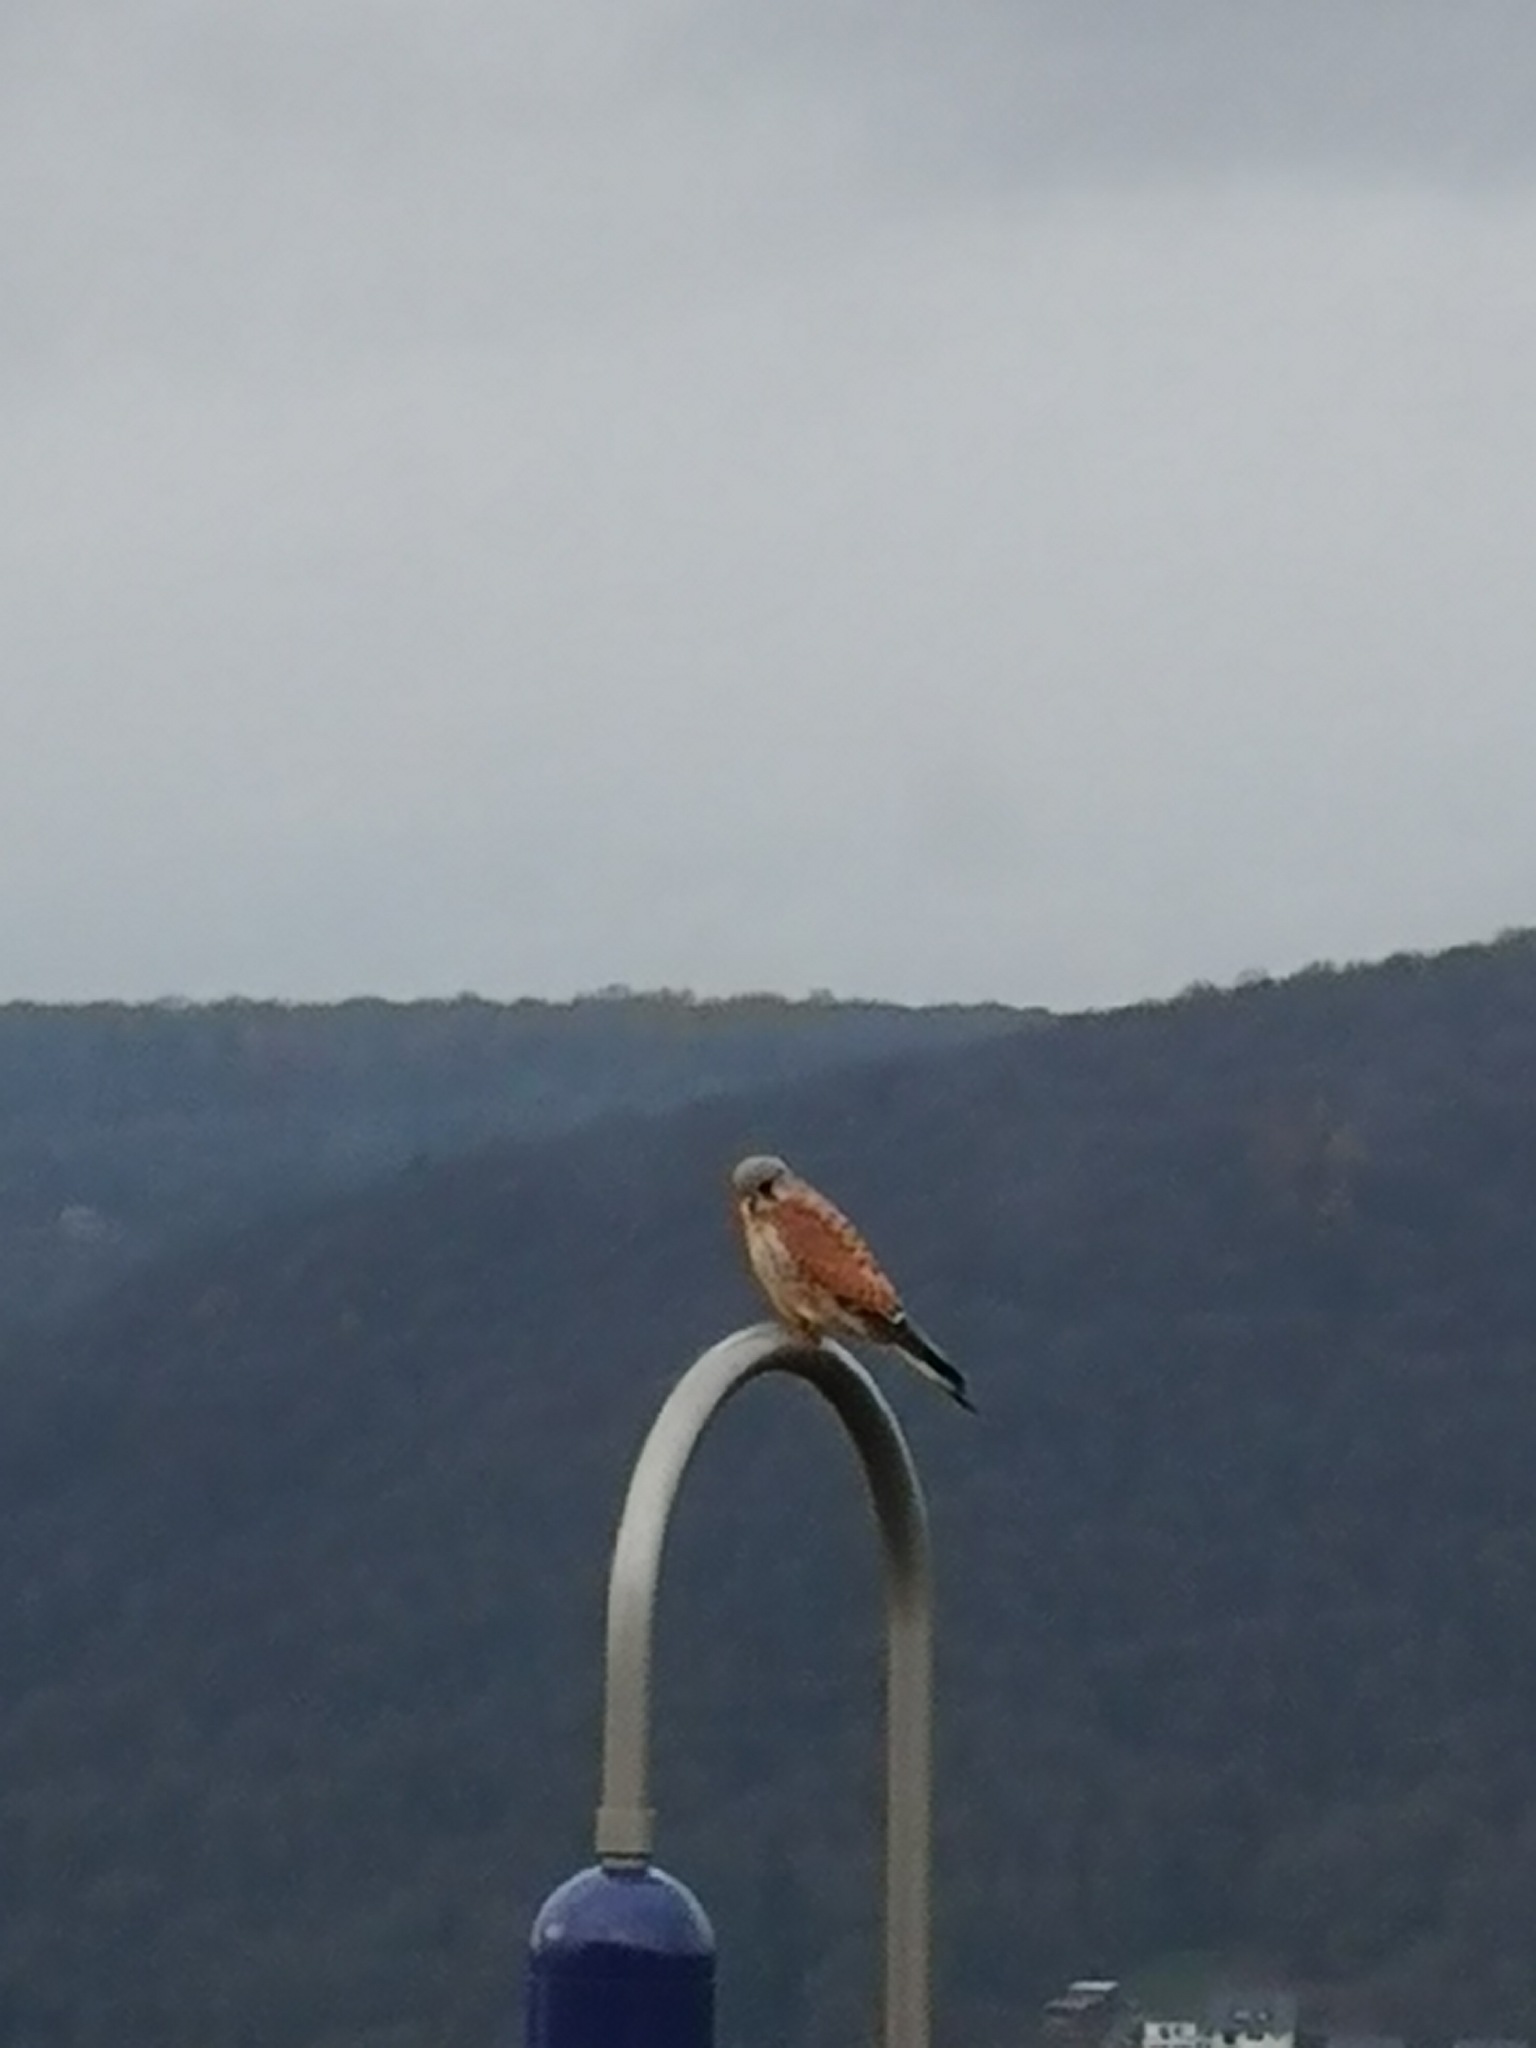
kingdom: Animalia
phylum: Chordata
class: Aves
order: Falconiformes
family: Falconidae
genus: Falco
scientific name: Falco tinnunculus
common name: Common kestrel
